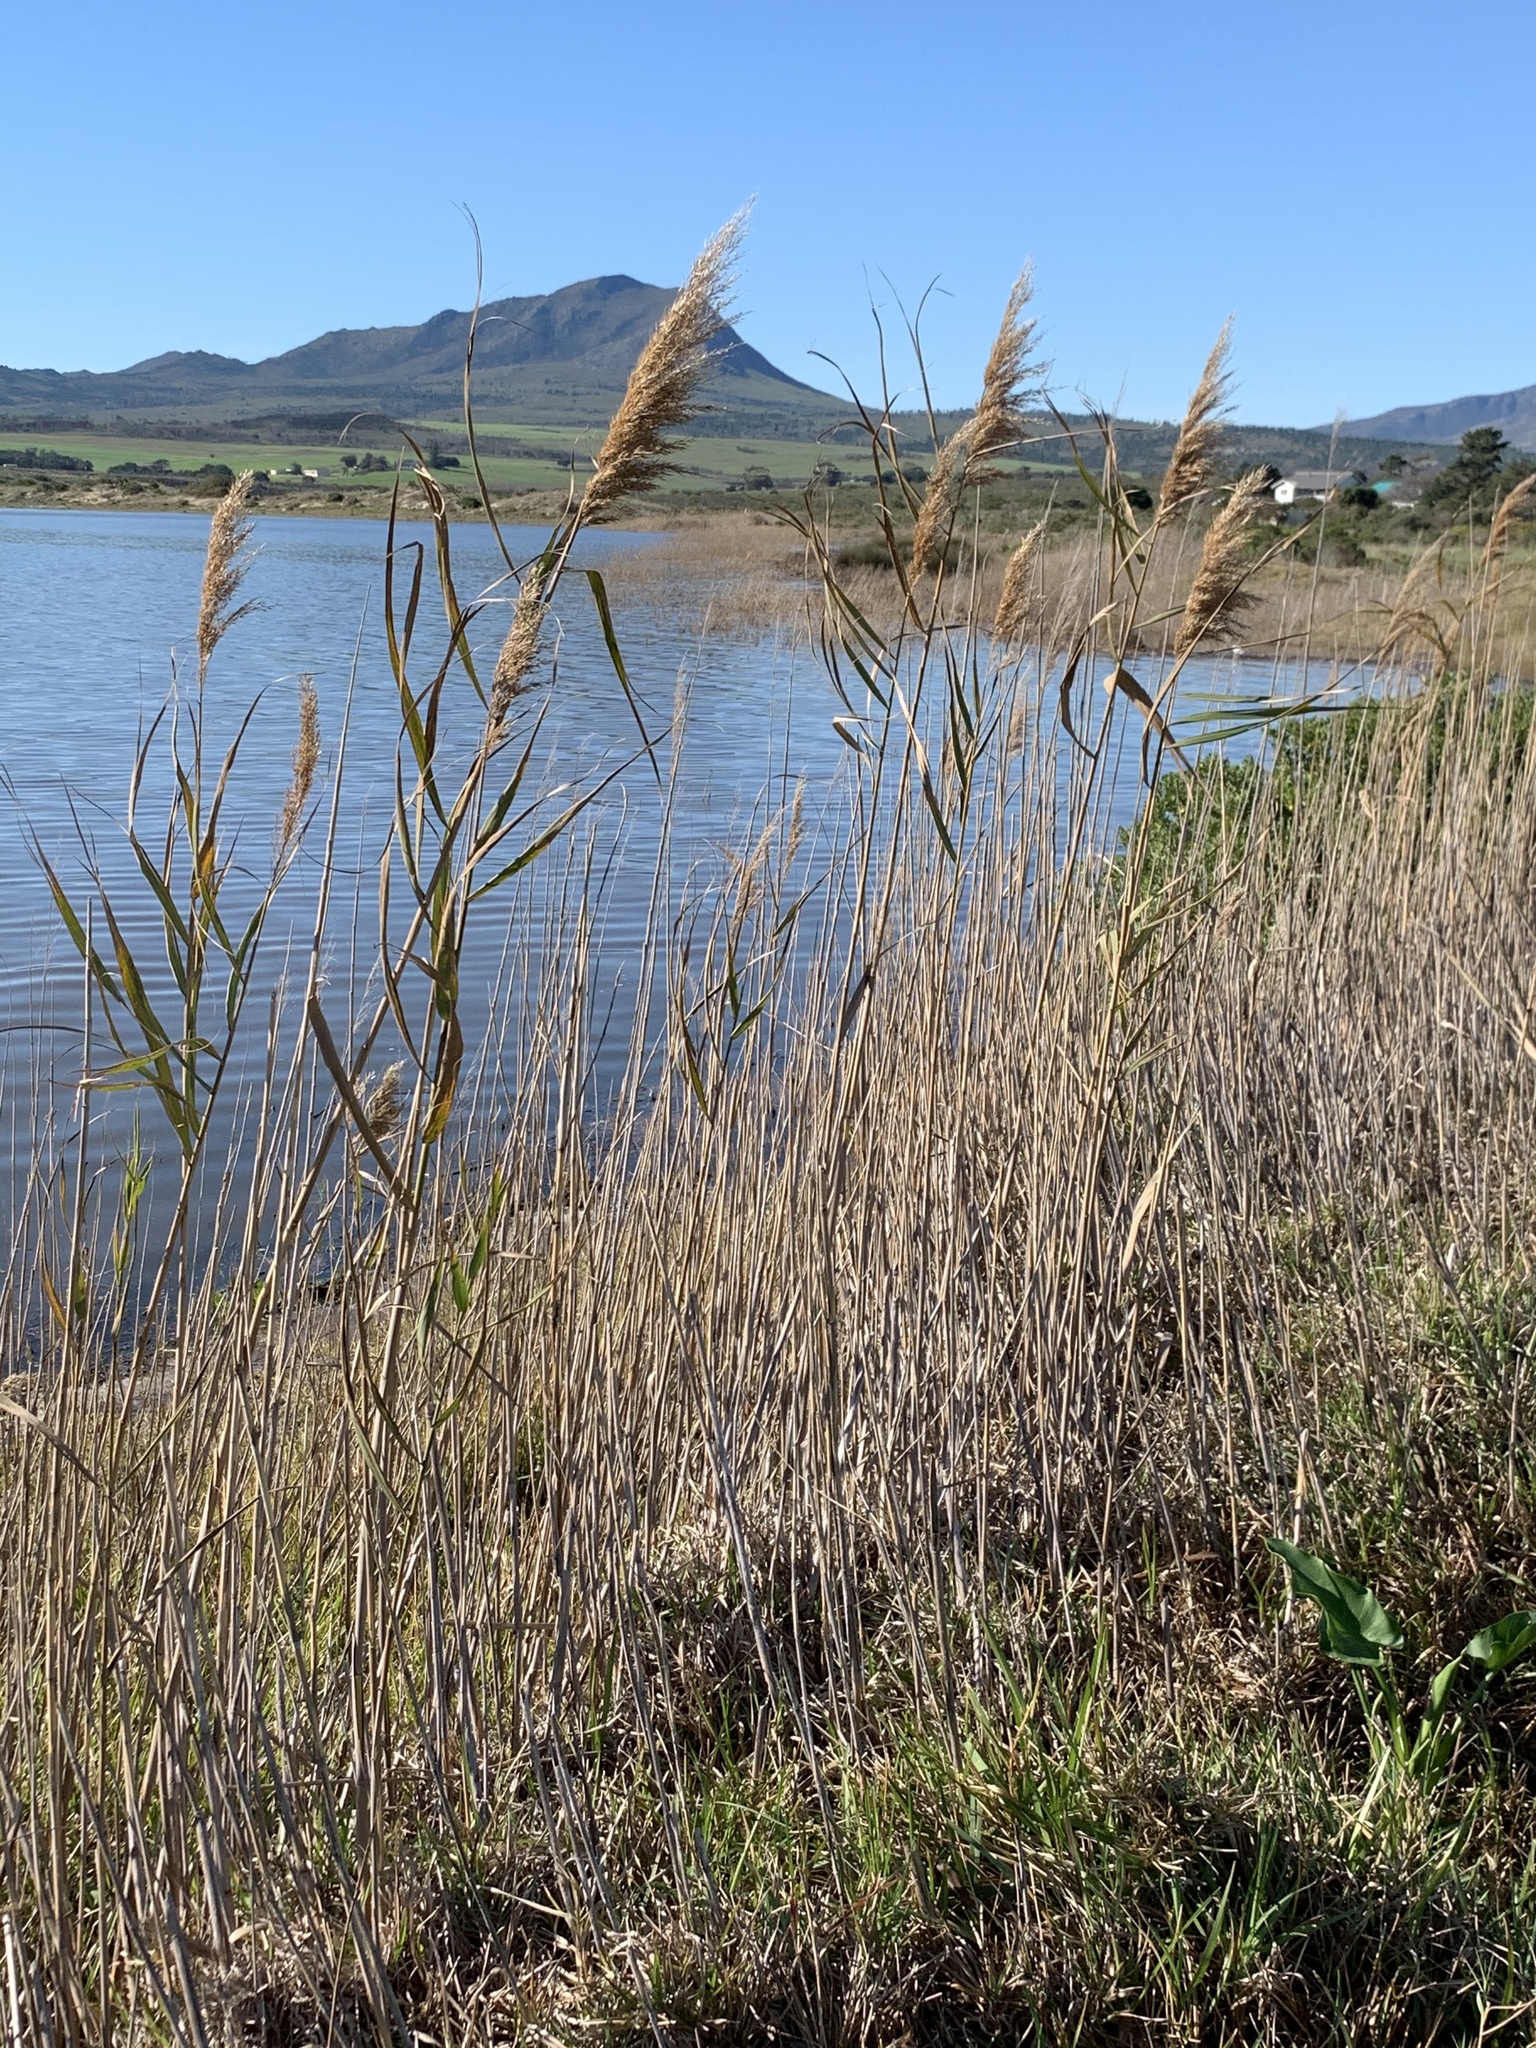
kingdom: Plantae
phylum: Tracheophyta
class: Liliopsida
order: Poales
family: Poaceae
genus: Phragmites
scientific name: Phragmites australis
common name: Common reed
